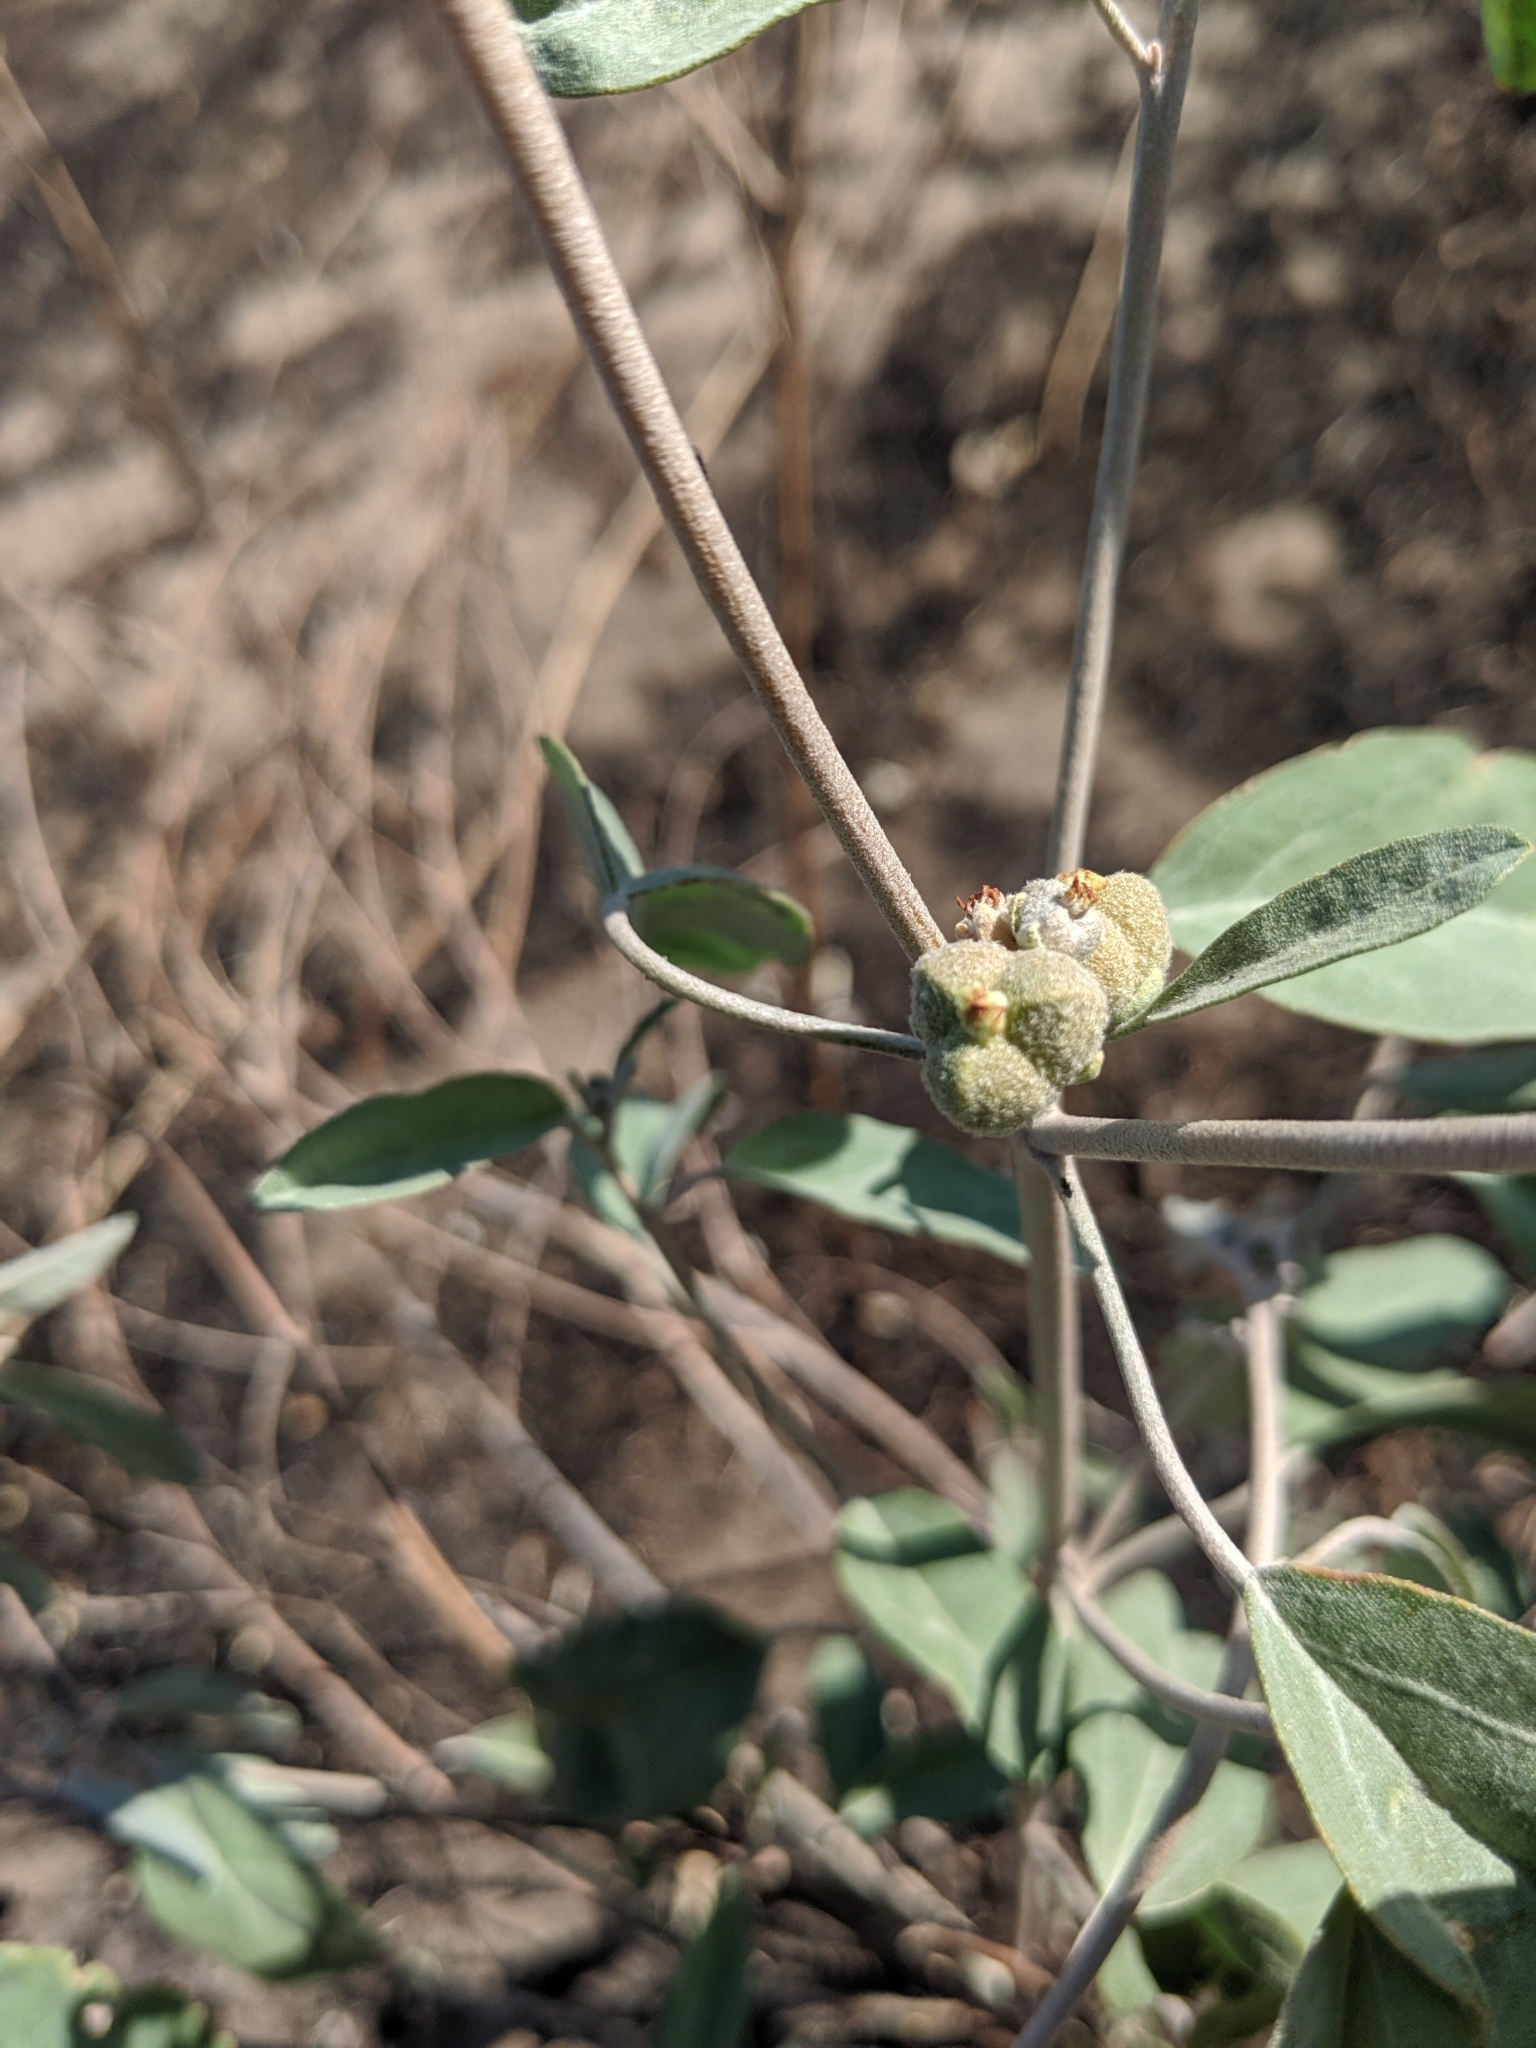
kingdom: Plantae
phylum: Tracheophyta
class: Magnoliopsida
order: Malpighiales
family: Euphorbiaceae
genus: Croton
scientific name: Croton californicus
